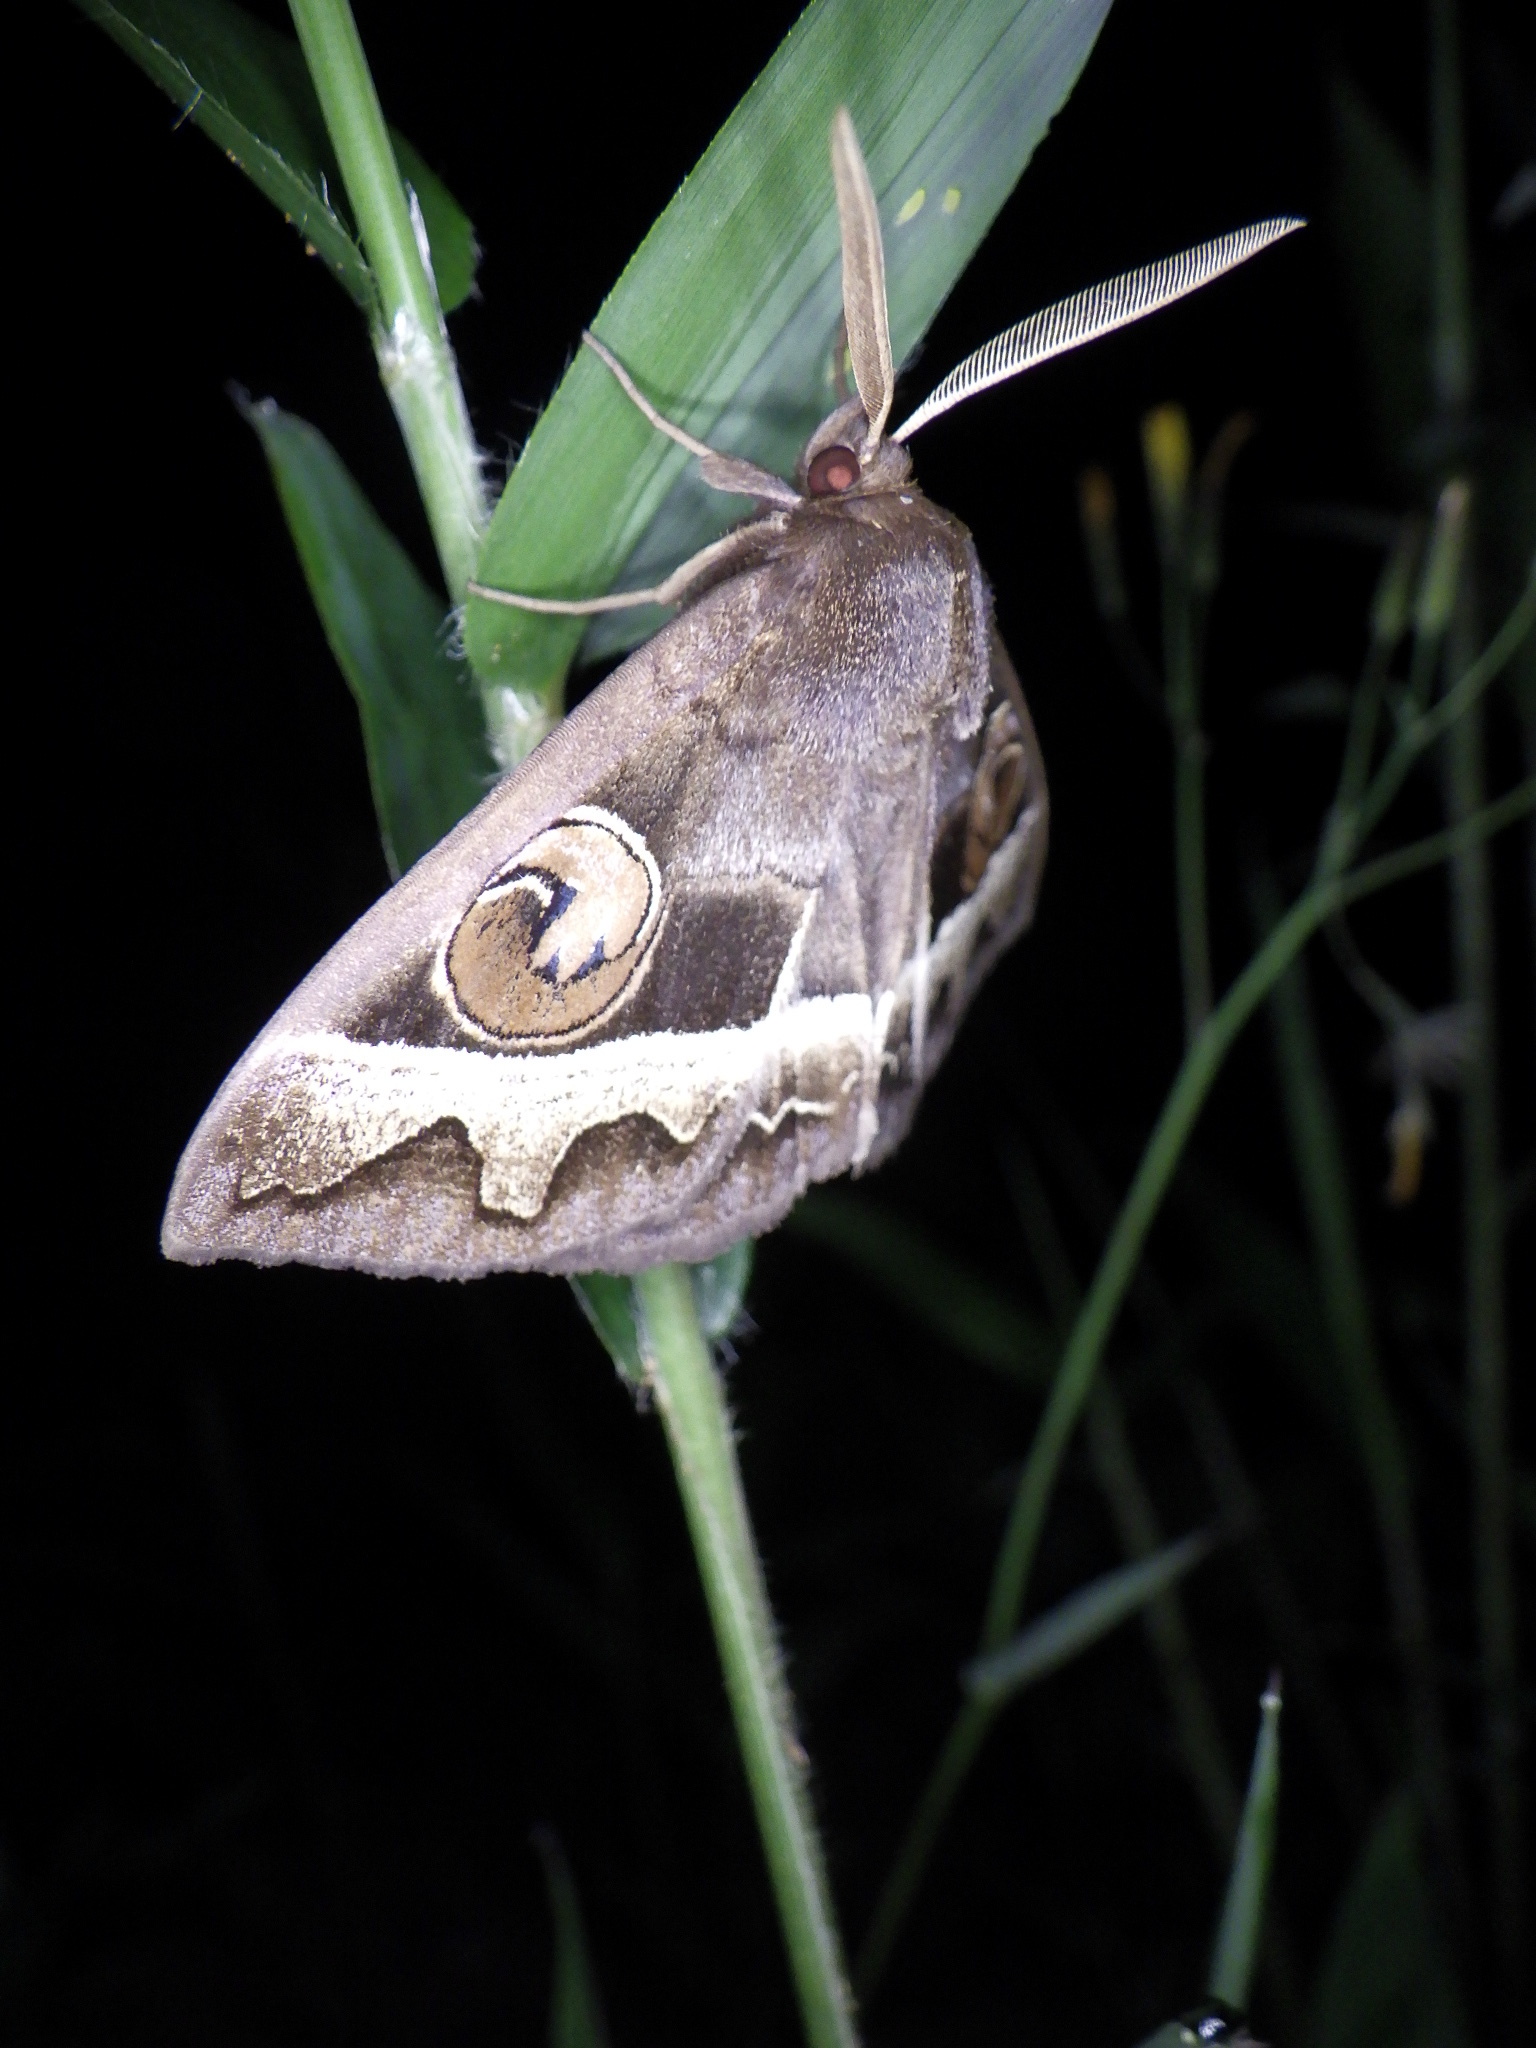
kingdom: Animalia
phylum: Arthropoda
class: Insecta
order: Lepidoptera
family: Erebidae
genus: Metopta
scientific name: Metopta rectifasciata
